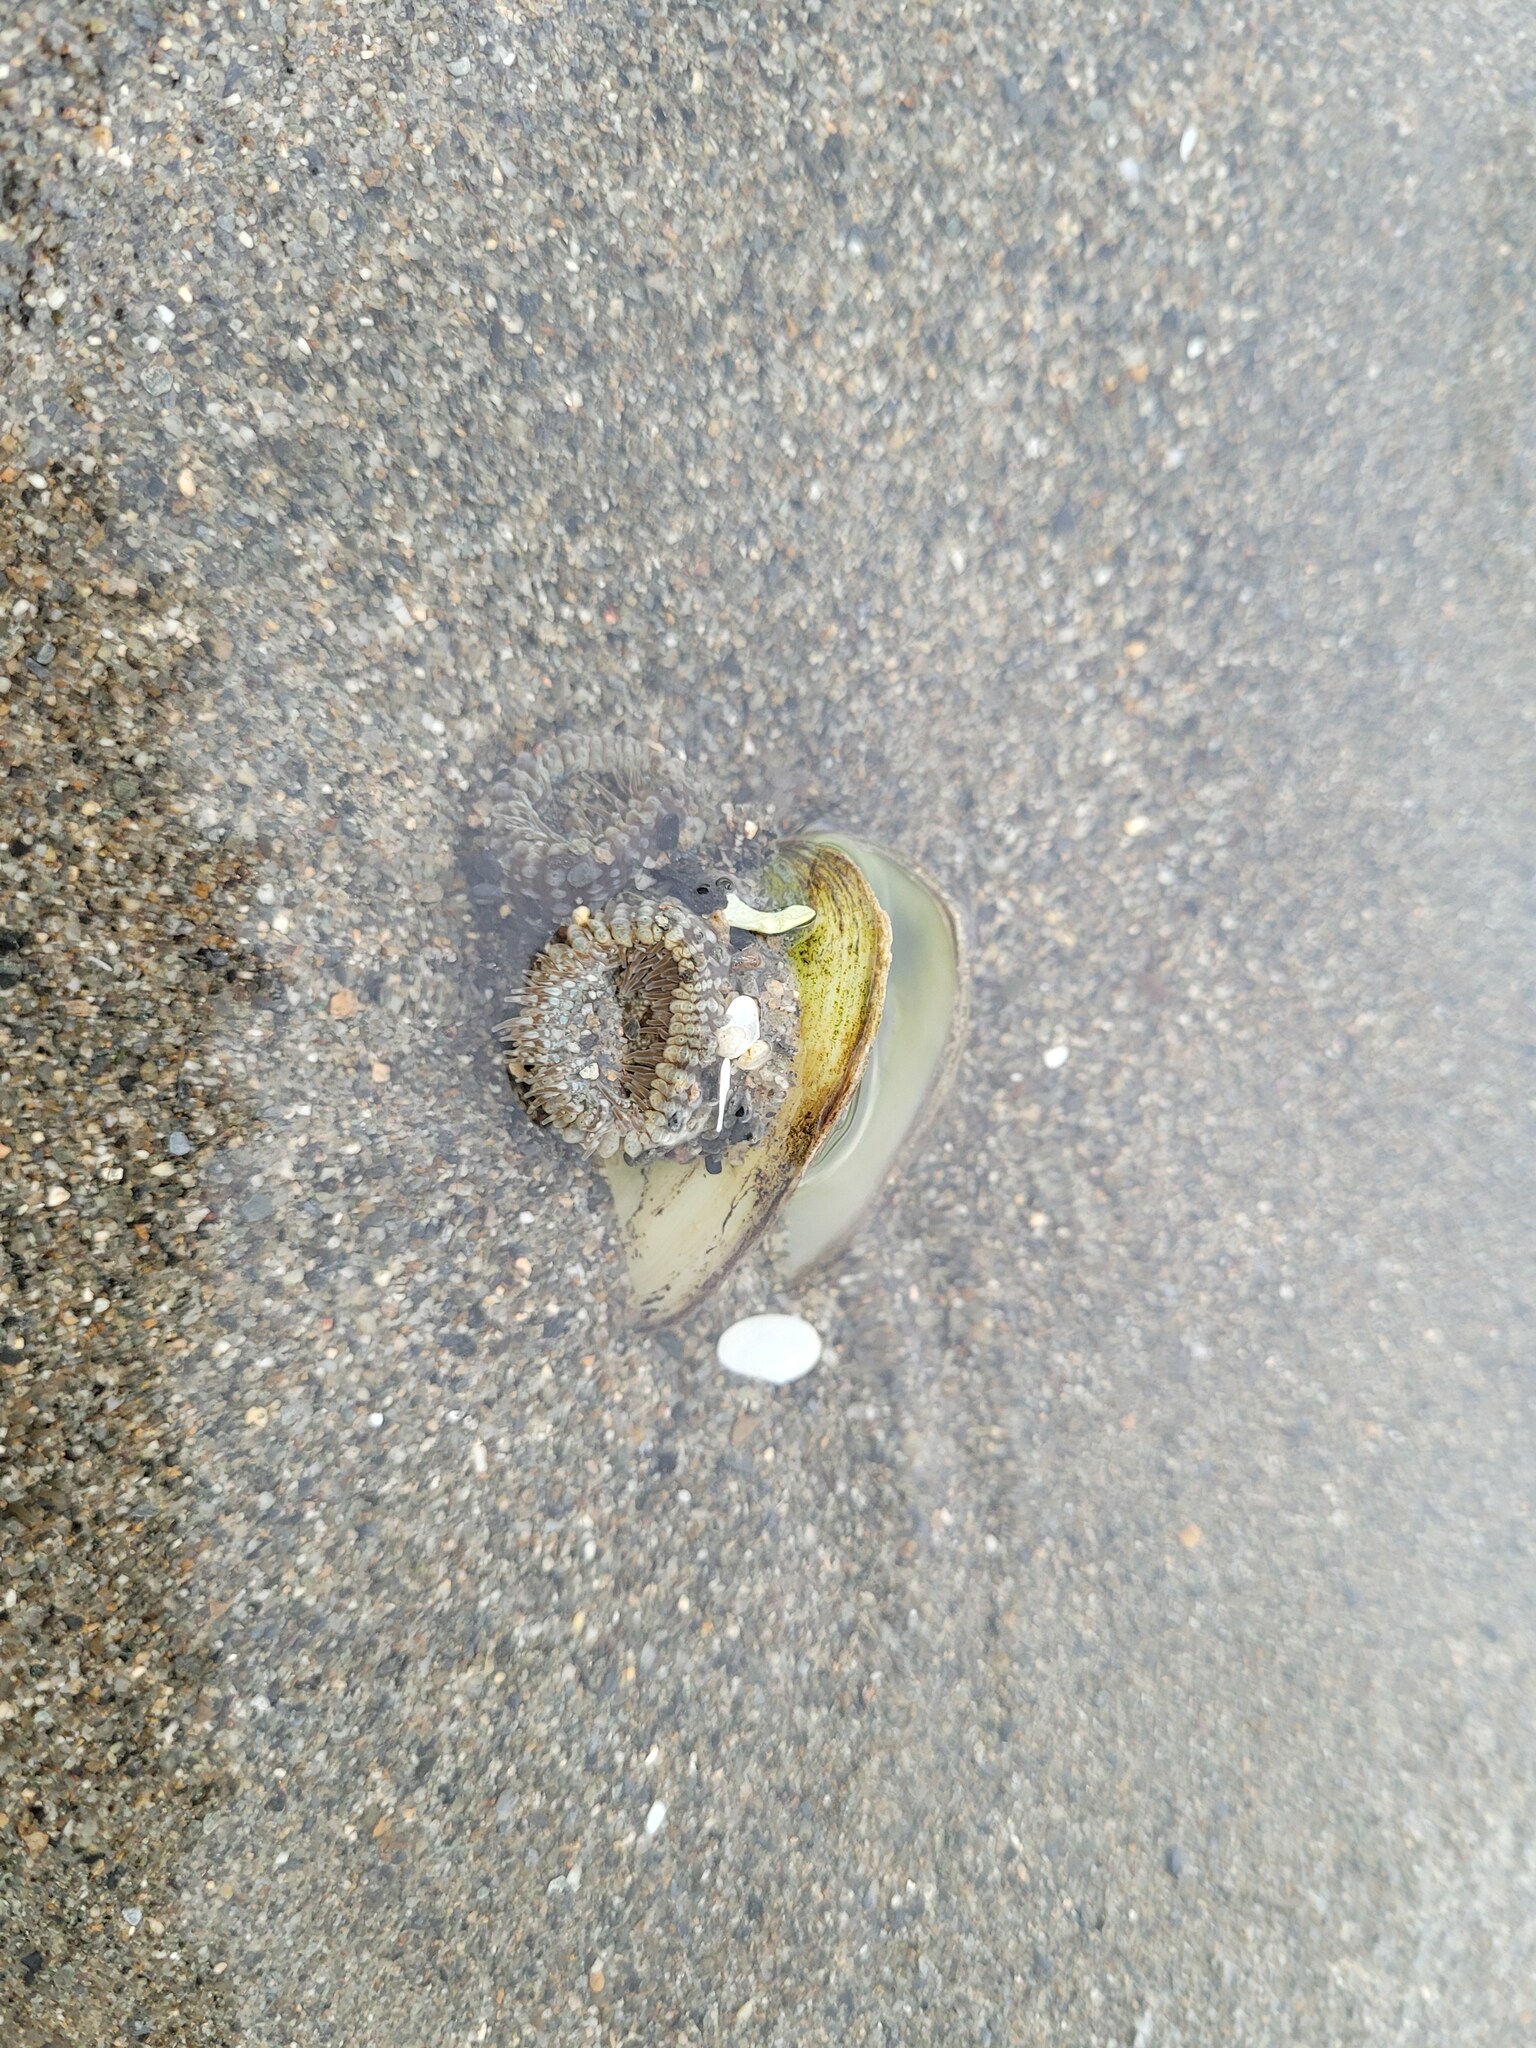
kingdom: Animalia
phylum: Cnidaria
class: Anthozoa
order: Actiniaria
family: Actiniidae
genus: Anthopleura
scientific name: Anthopleura hermaphroditica
